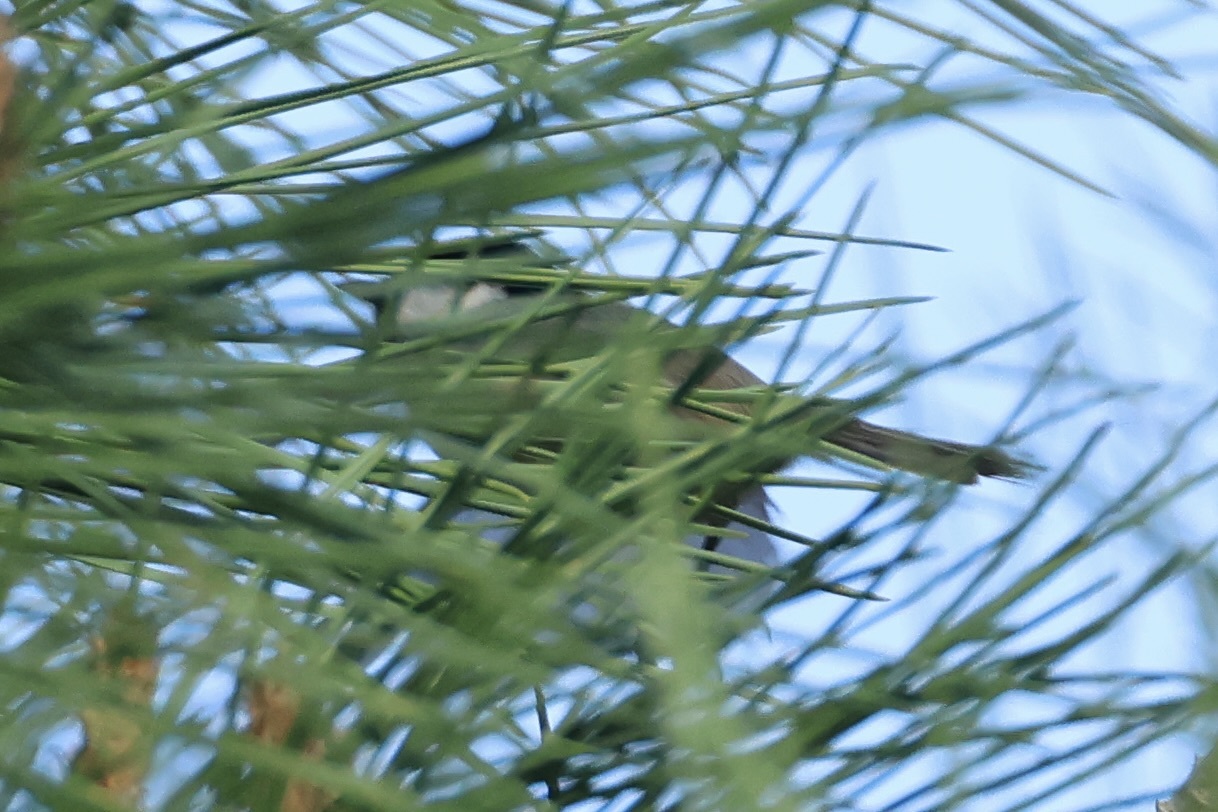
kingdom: Animalia
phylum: Chordata
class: Aves
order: Passeriformes
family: Paridae
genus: Periparus
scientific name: Periparus ater
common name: Coal tit
